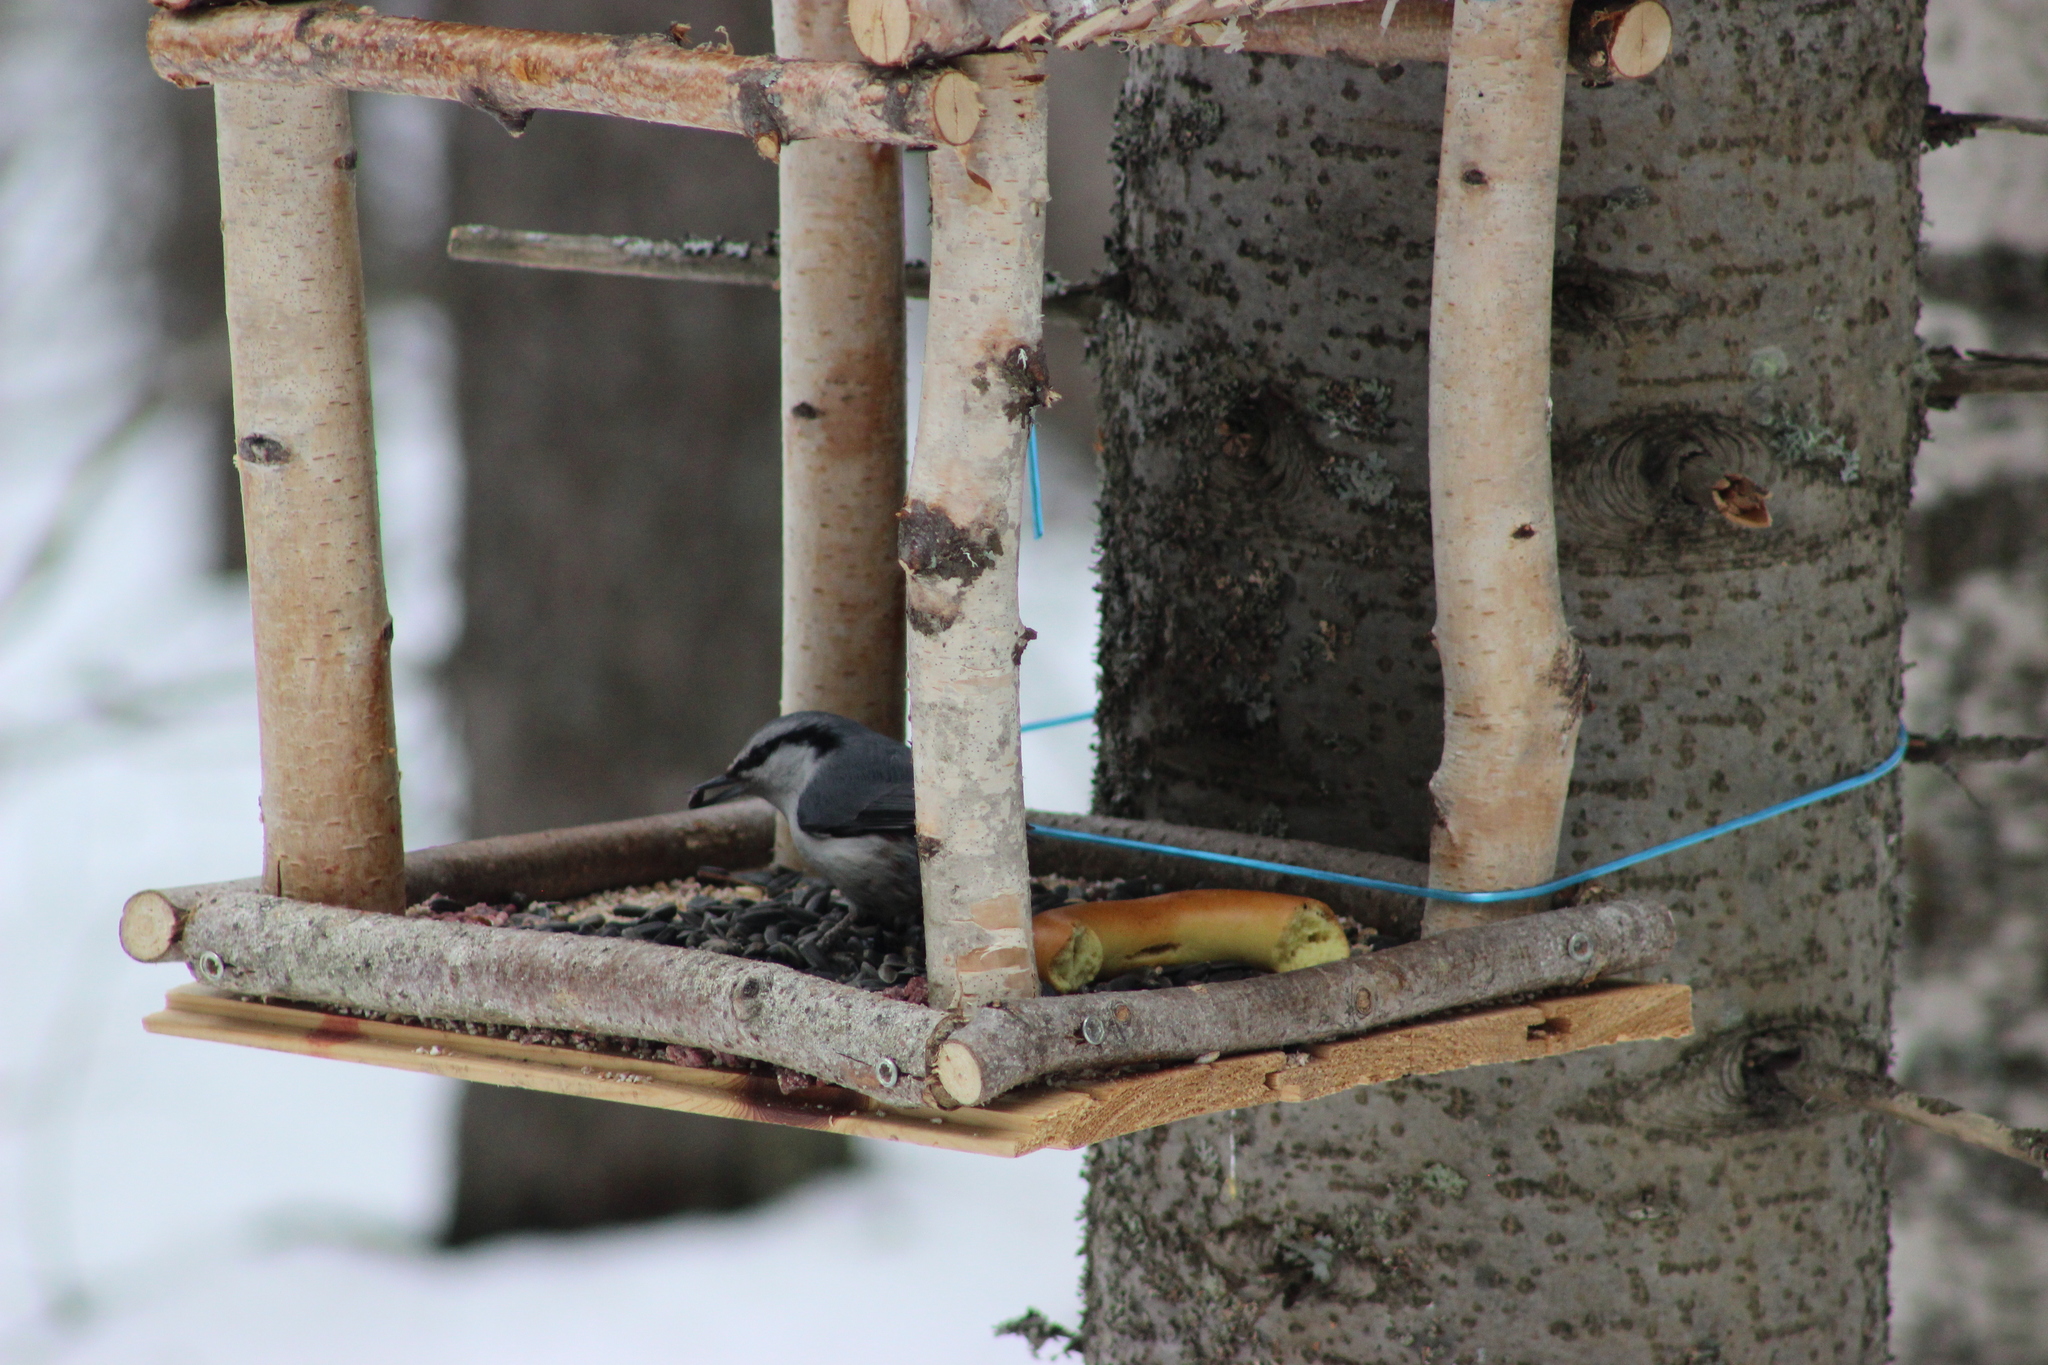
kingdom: Animalia
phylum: Chordata
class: Aves
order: Passeriformes
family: Sittidae
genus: Sitta
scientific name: Sitta europaea
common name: Eurasian nuthatch
